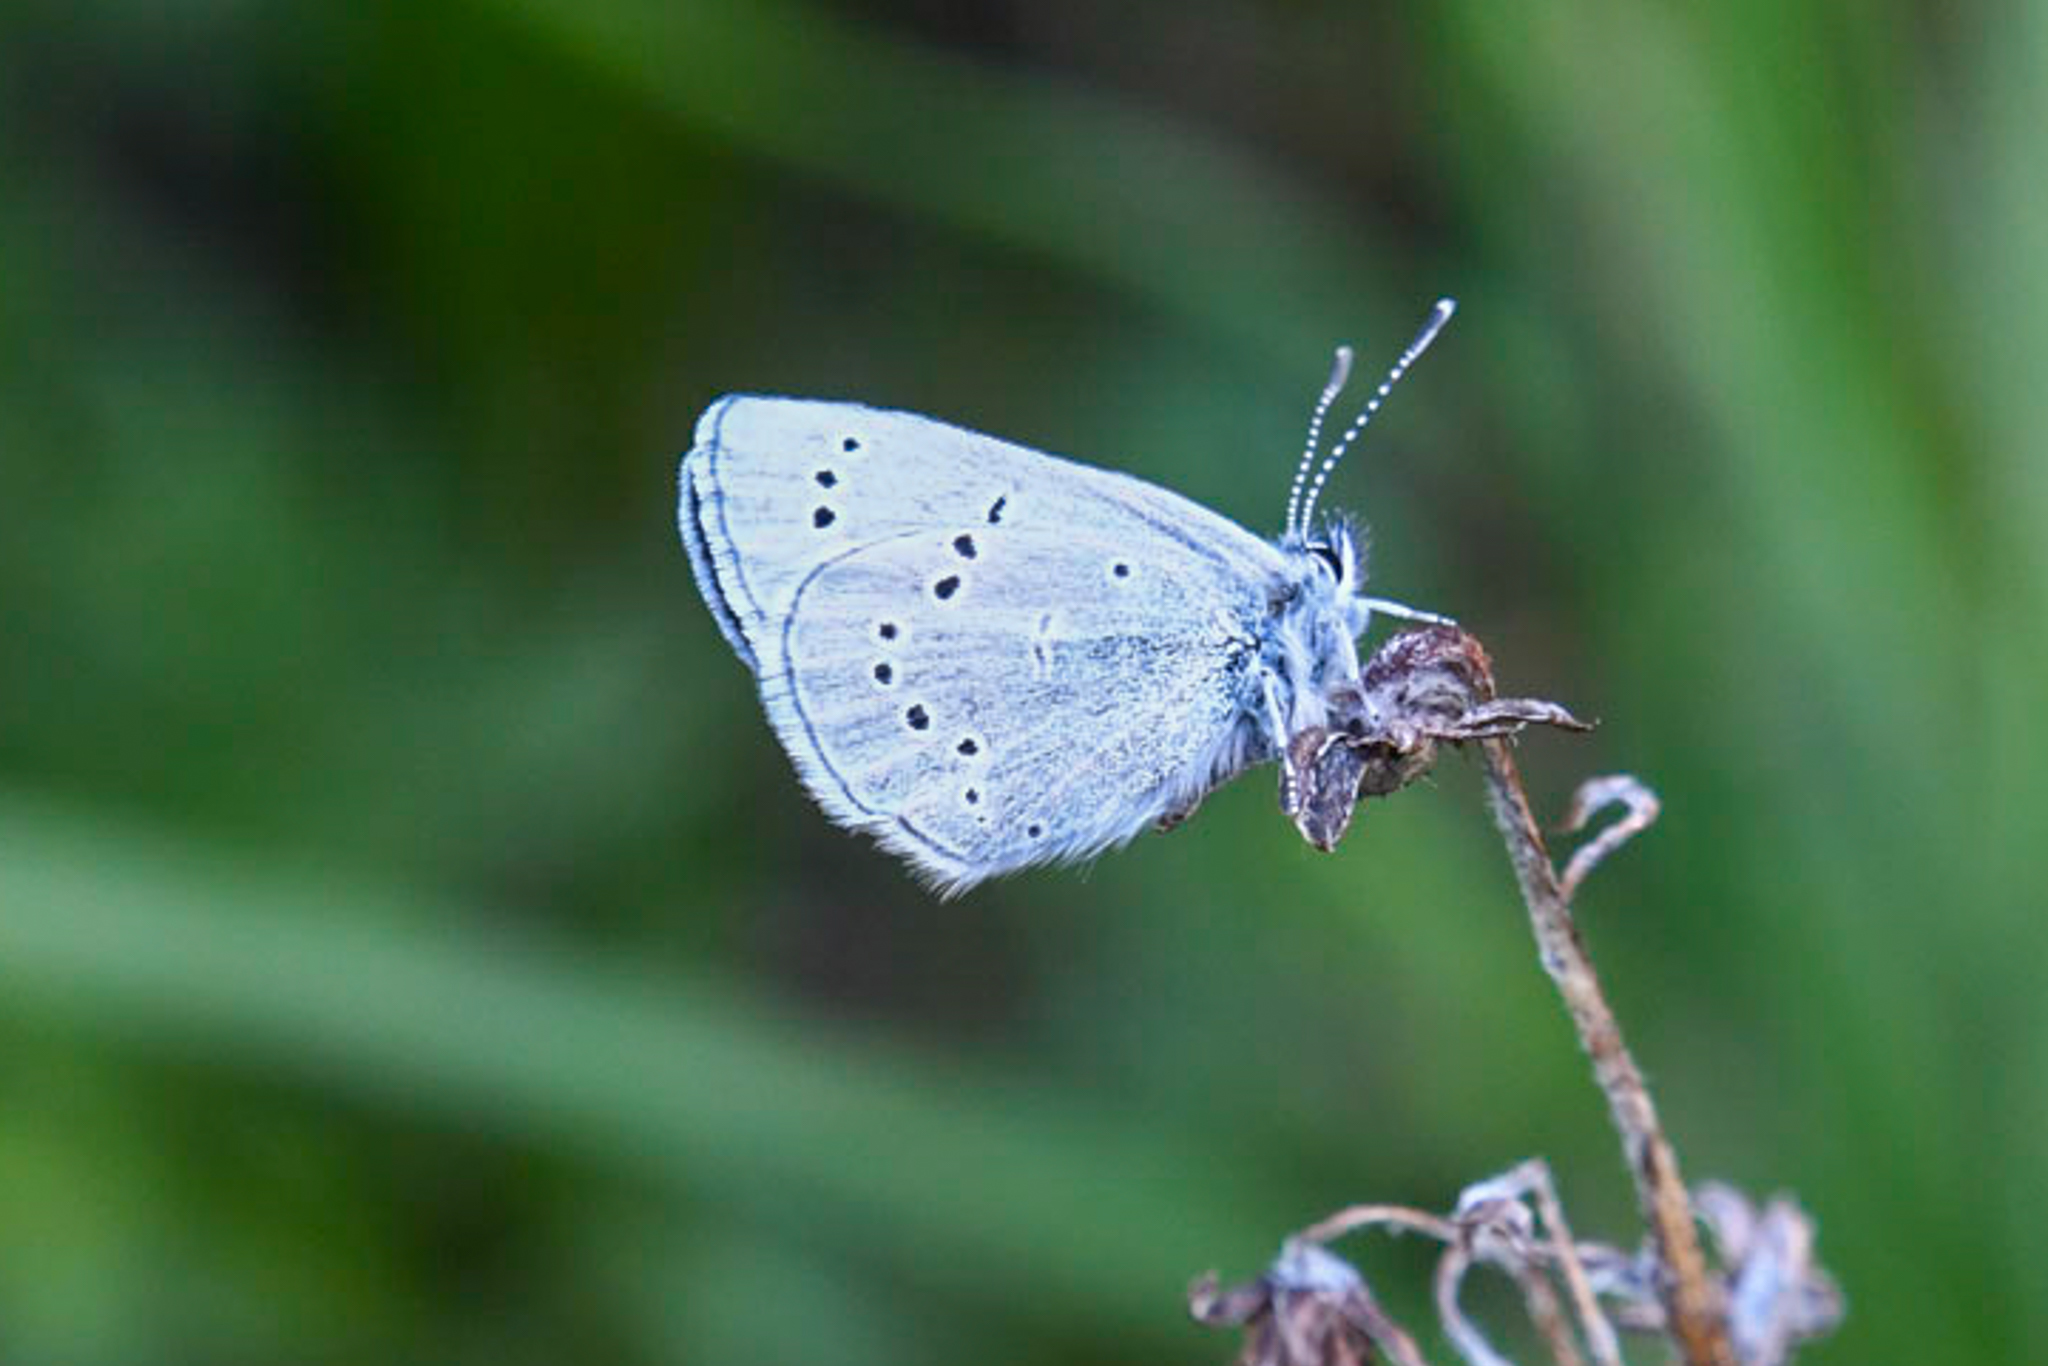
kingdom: Animalia
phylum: Arthropoda
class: Insecta
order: Lepidoptera
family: Lycaenidae
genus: Glaucopsyche
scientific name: Glaucopsyche lygdamus
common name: Silvery blue
